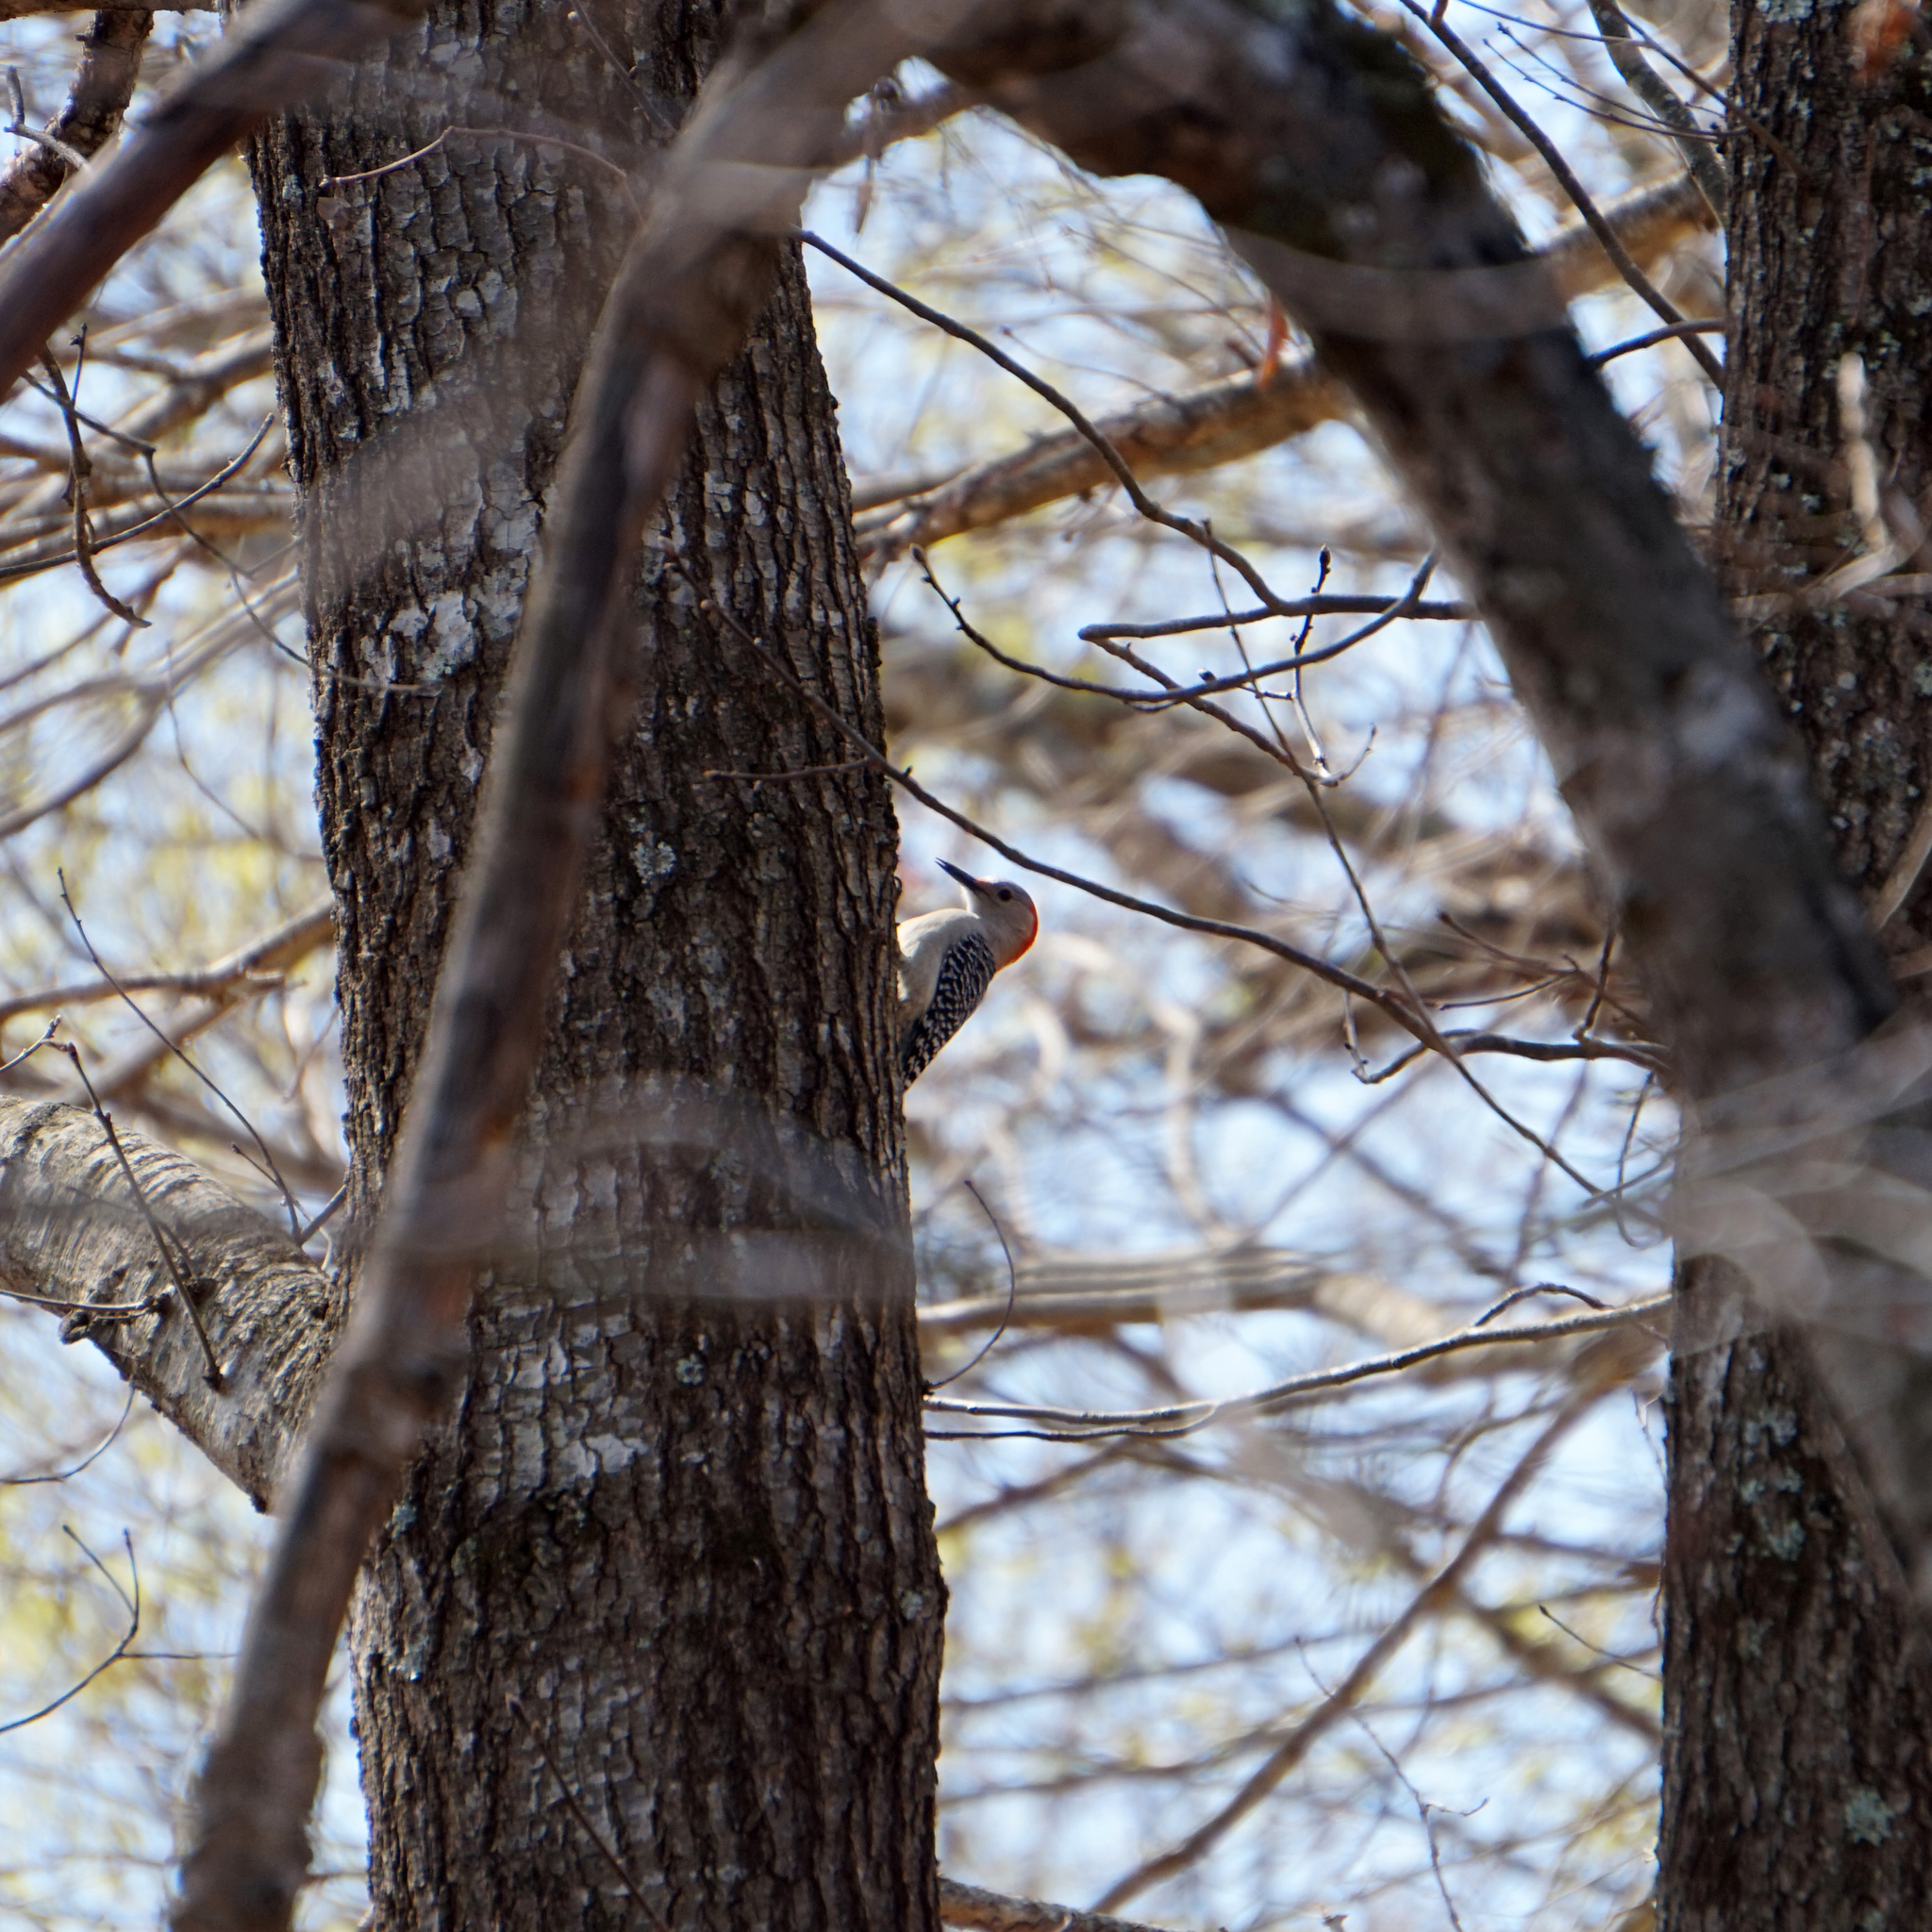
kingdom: Animalia
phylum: Chordata
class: Aves
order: Piciformes
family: Picidae
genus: Melanerpes
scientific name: Melanerpes carolinus
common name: Red-bellied woodpecker
